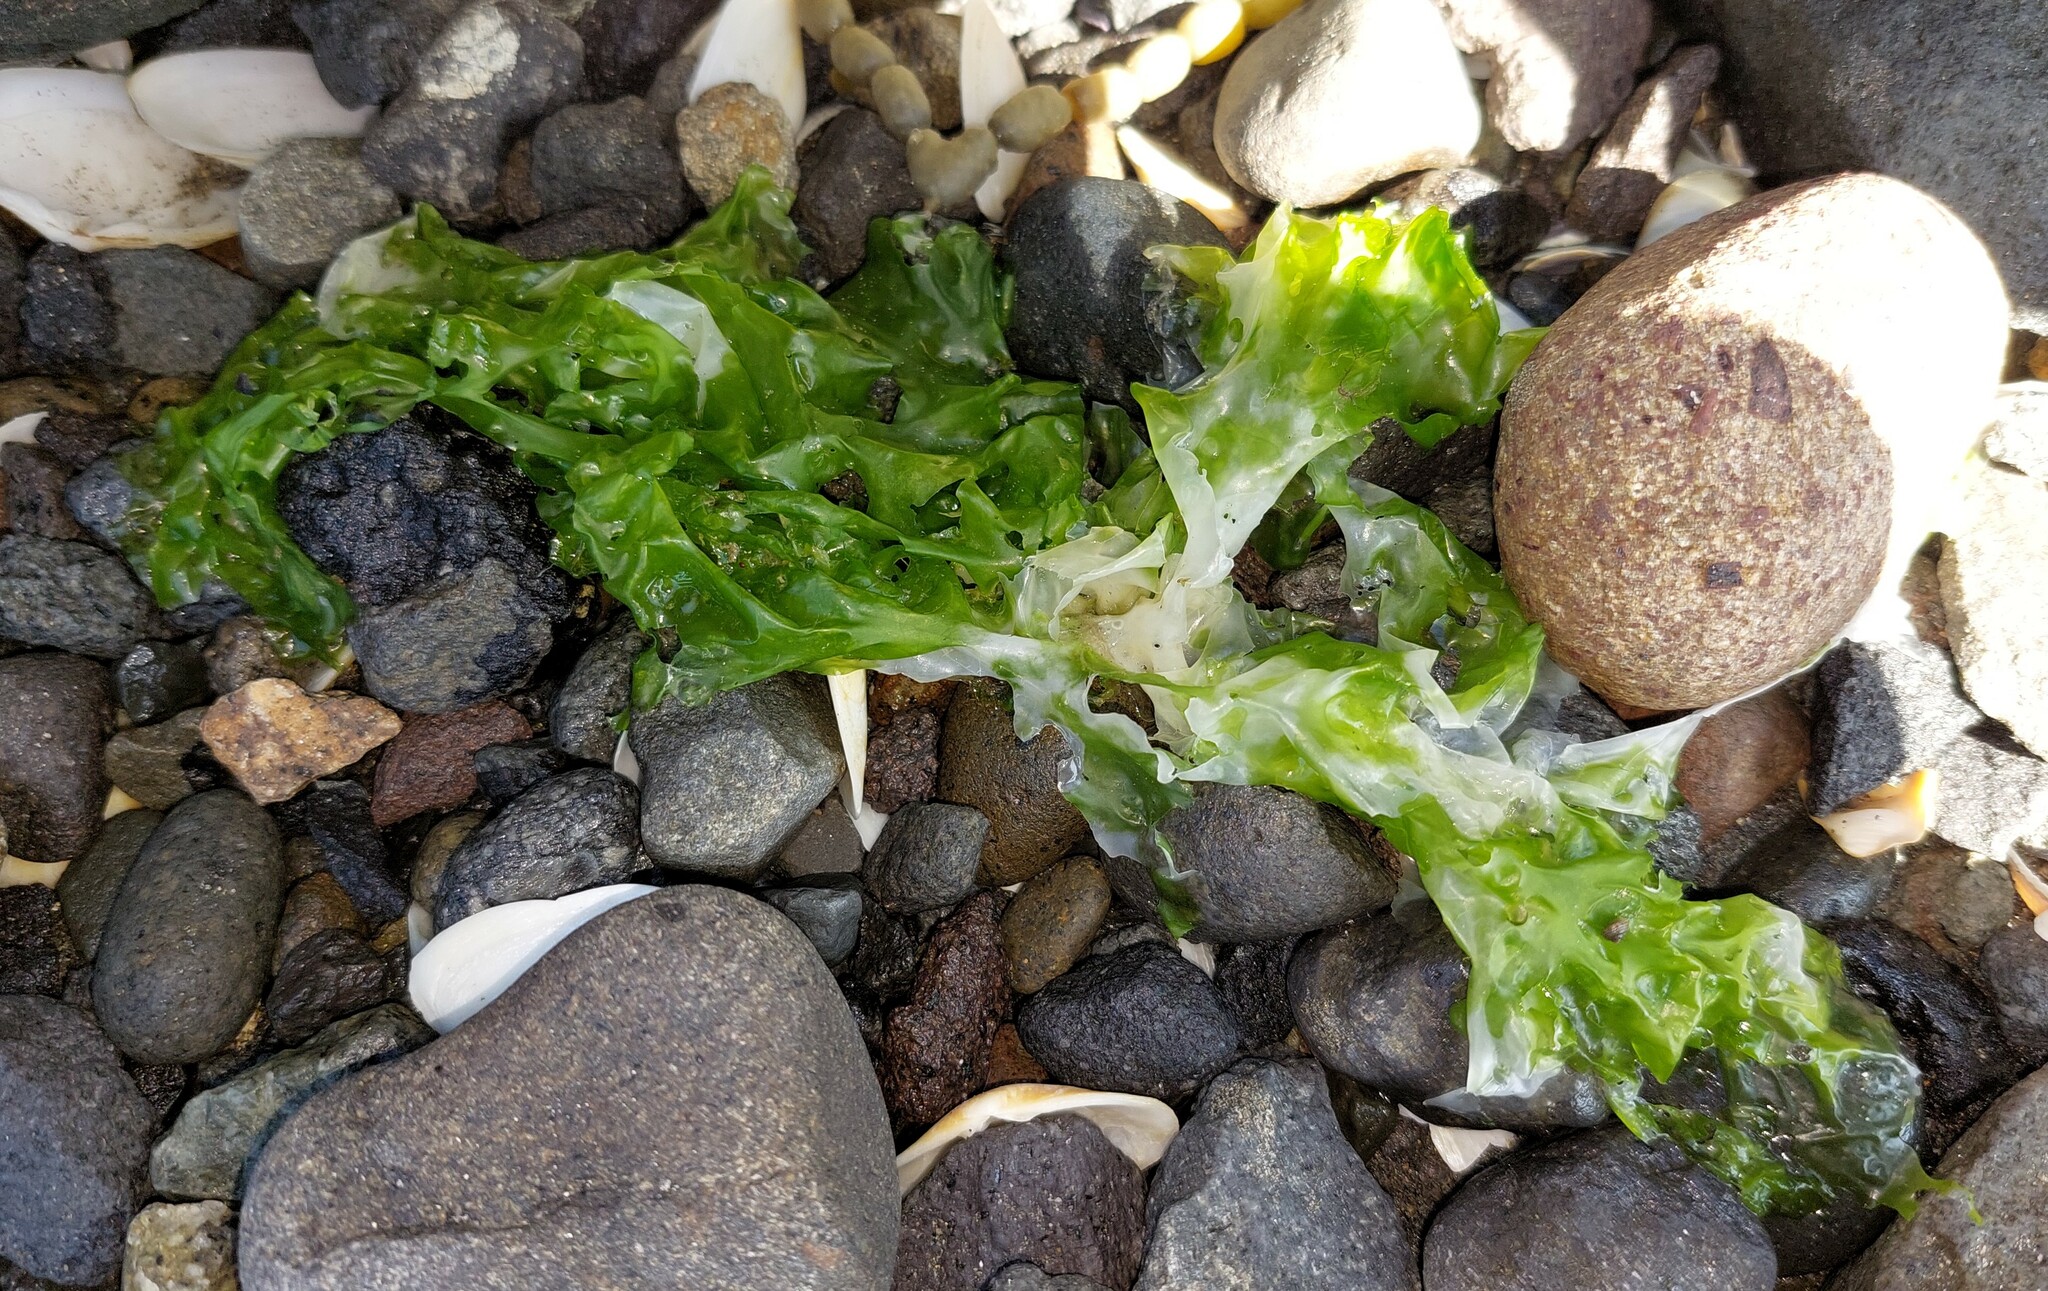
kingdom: Plantae
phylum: Chlorophyta
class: Ulvophyceae
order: Ulvales
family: Ulvaceae
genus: Ulva
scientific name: Ulva
